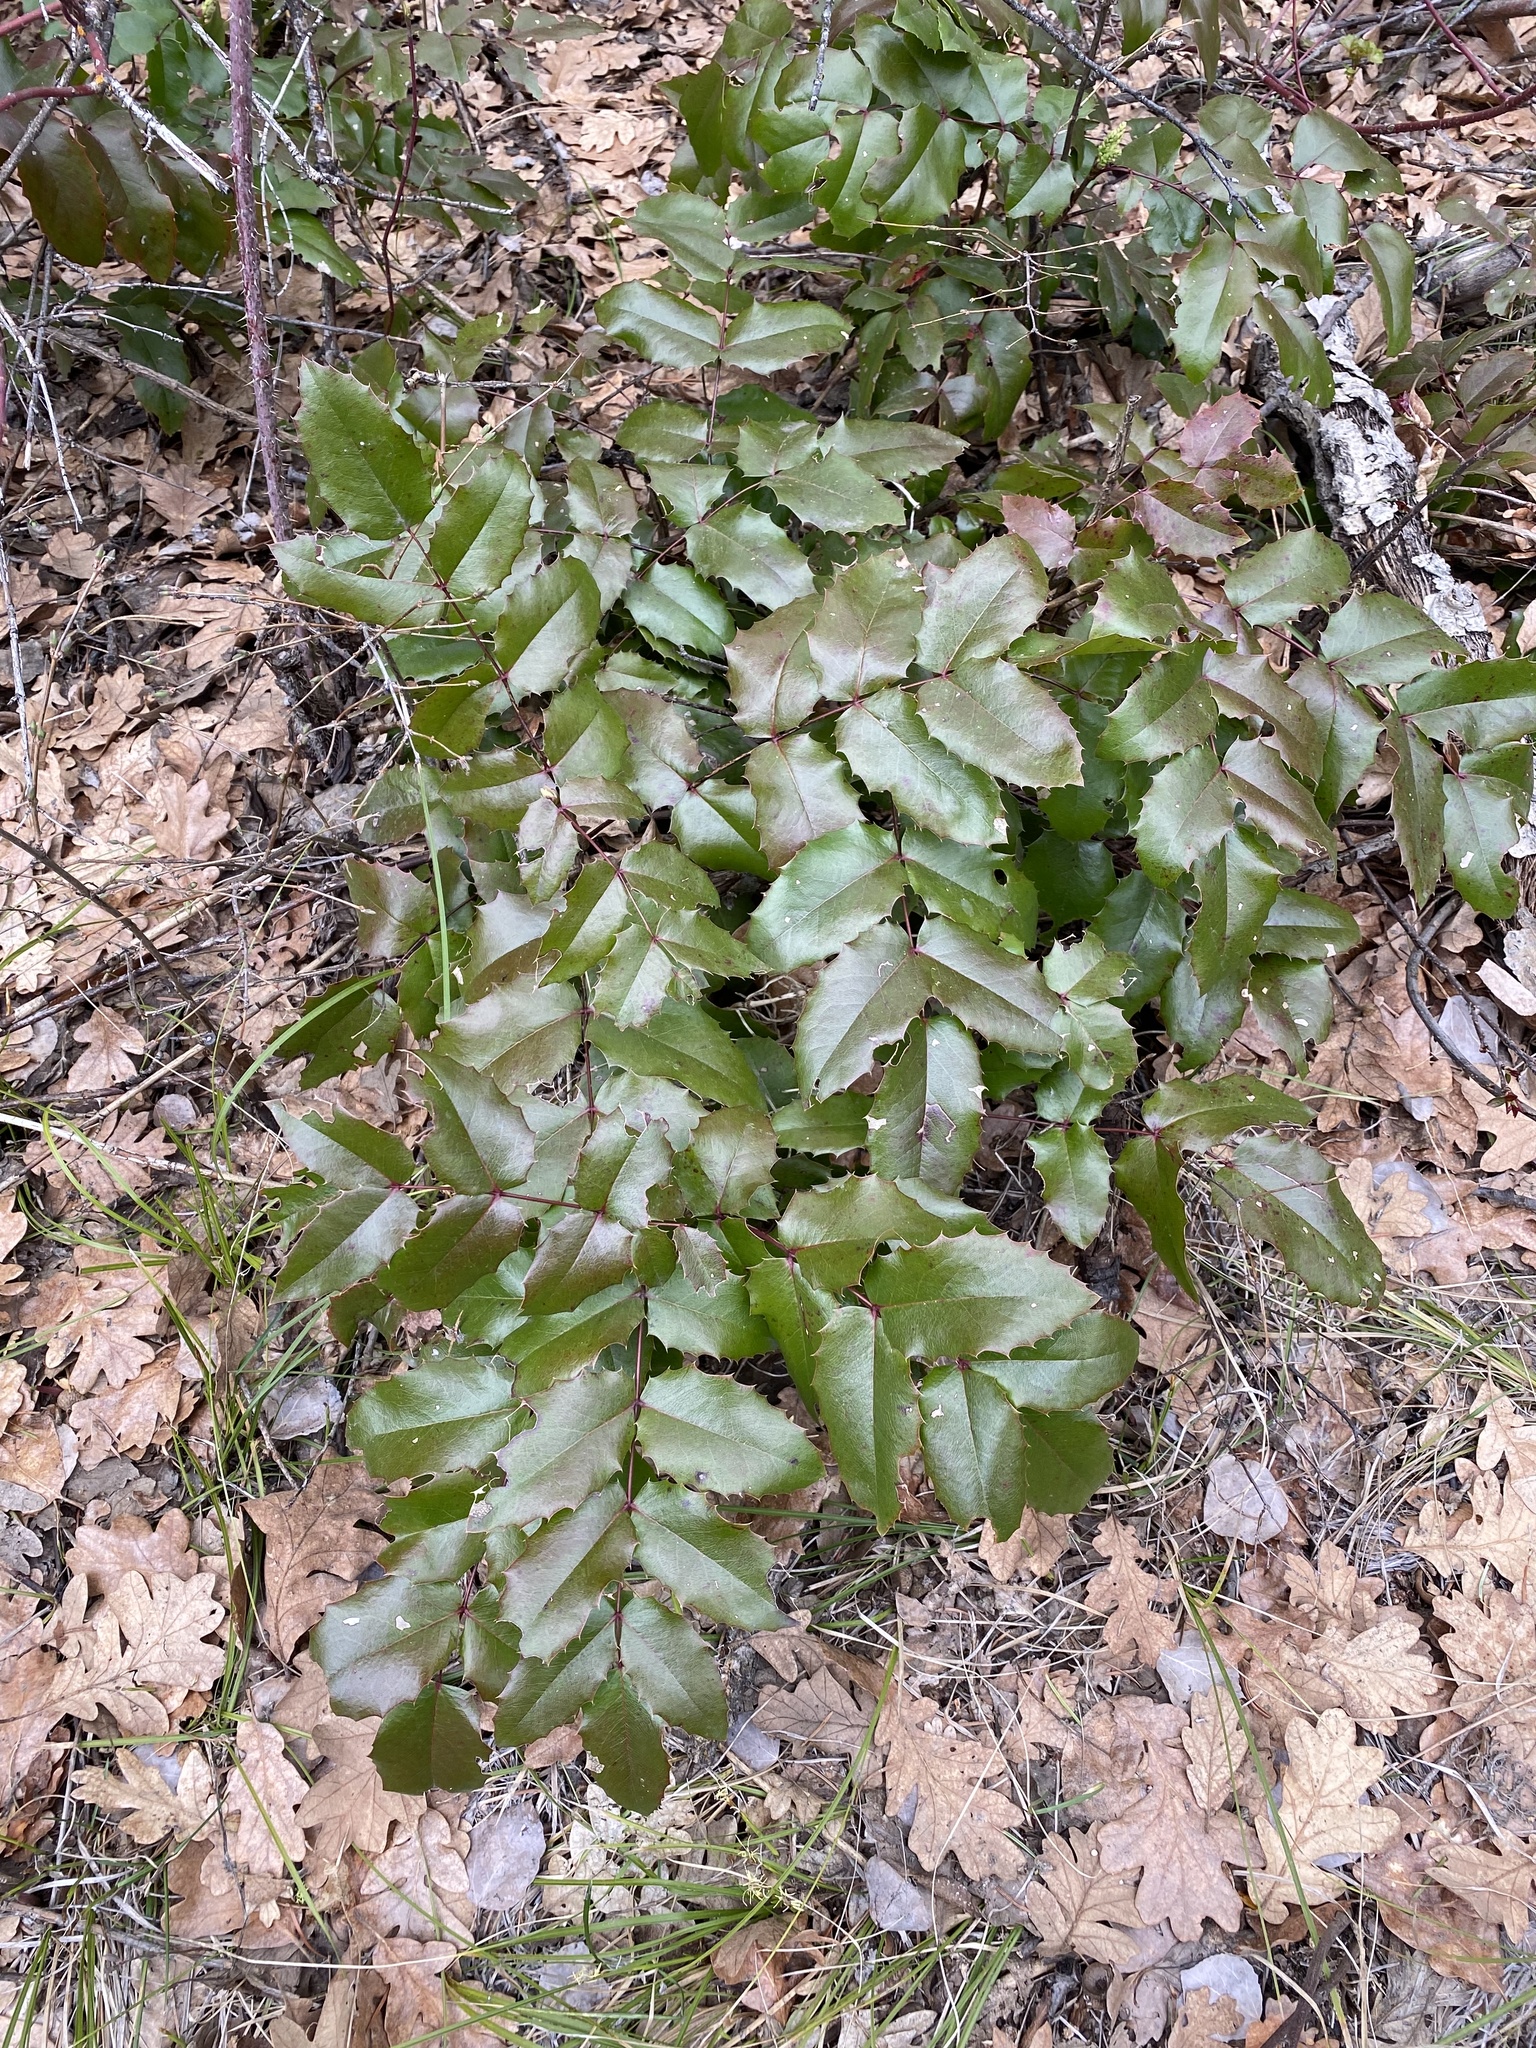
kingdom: Plantae
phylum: Tracheophyta
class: Magnoliopsida
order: Ranunculales
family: Berberidaceae
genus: Mahonia
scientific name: Mahonia aquifolium
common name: Oregon-grape
